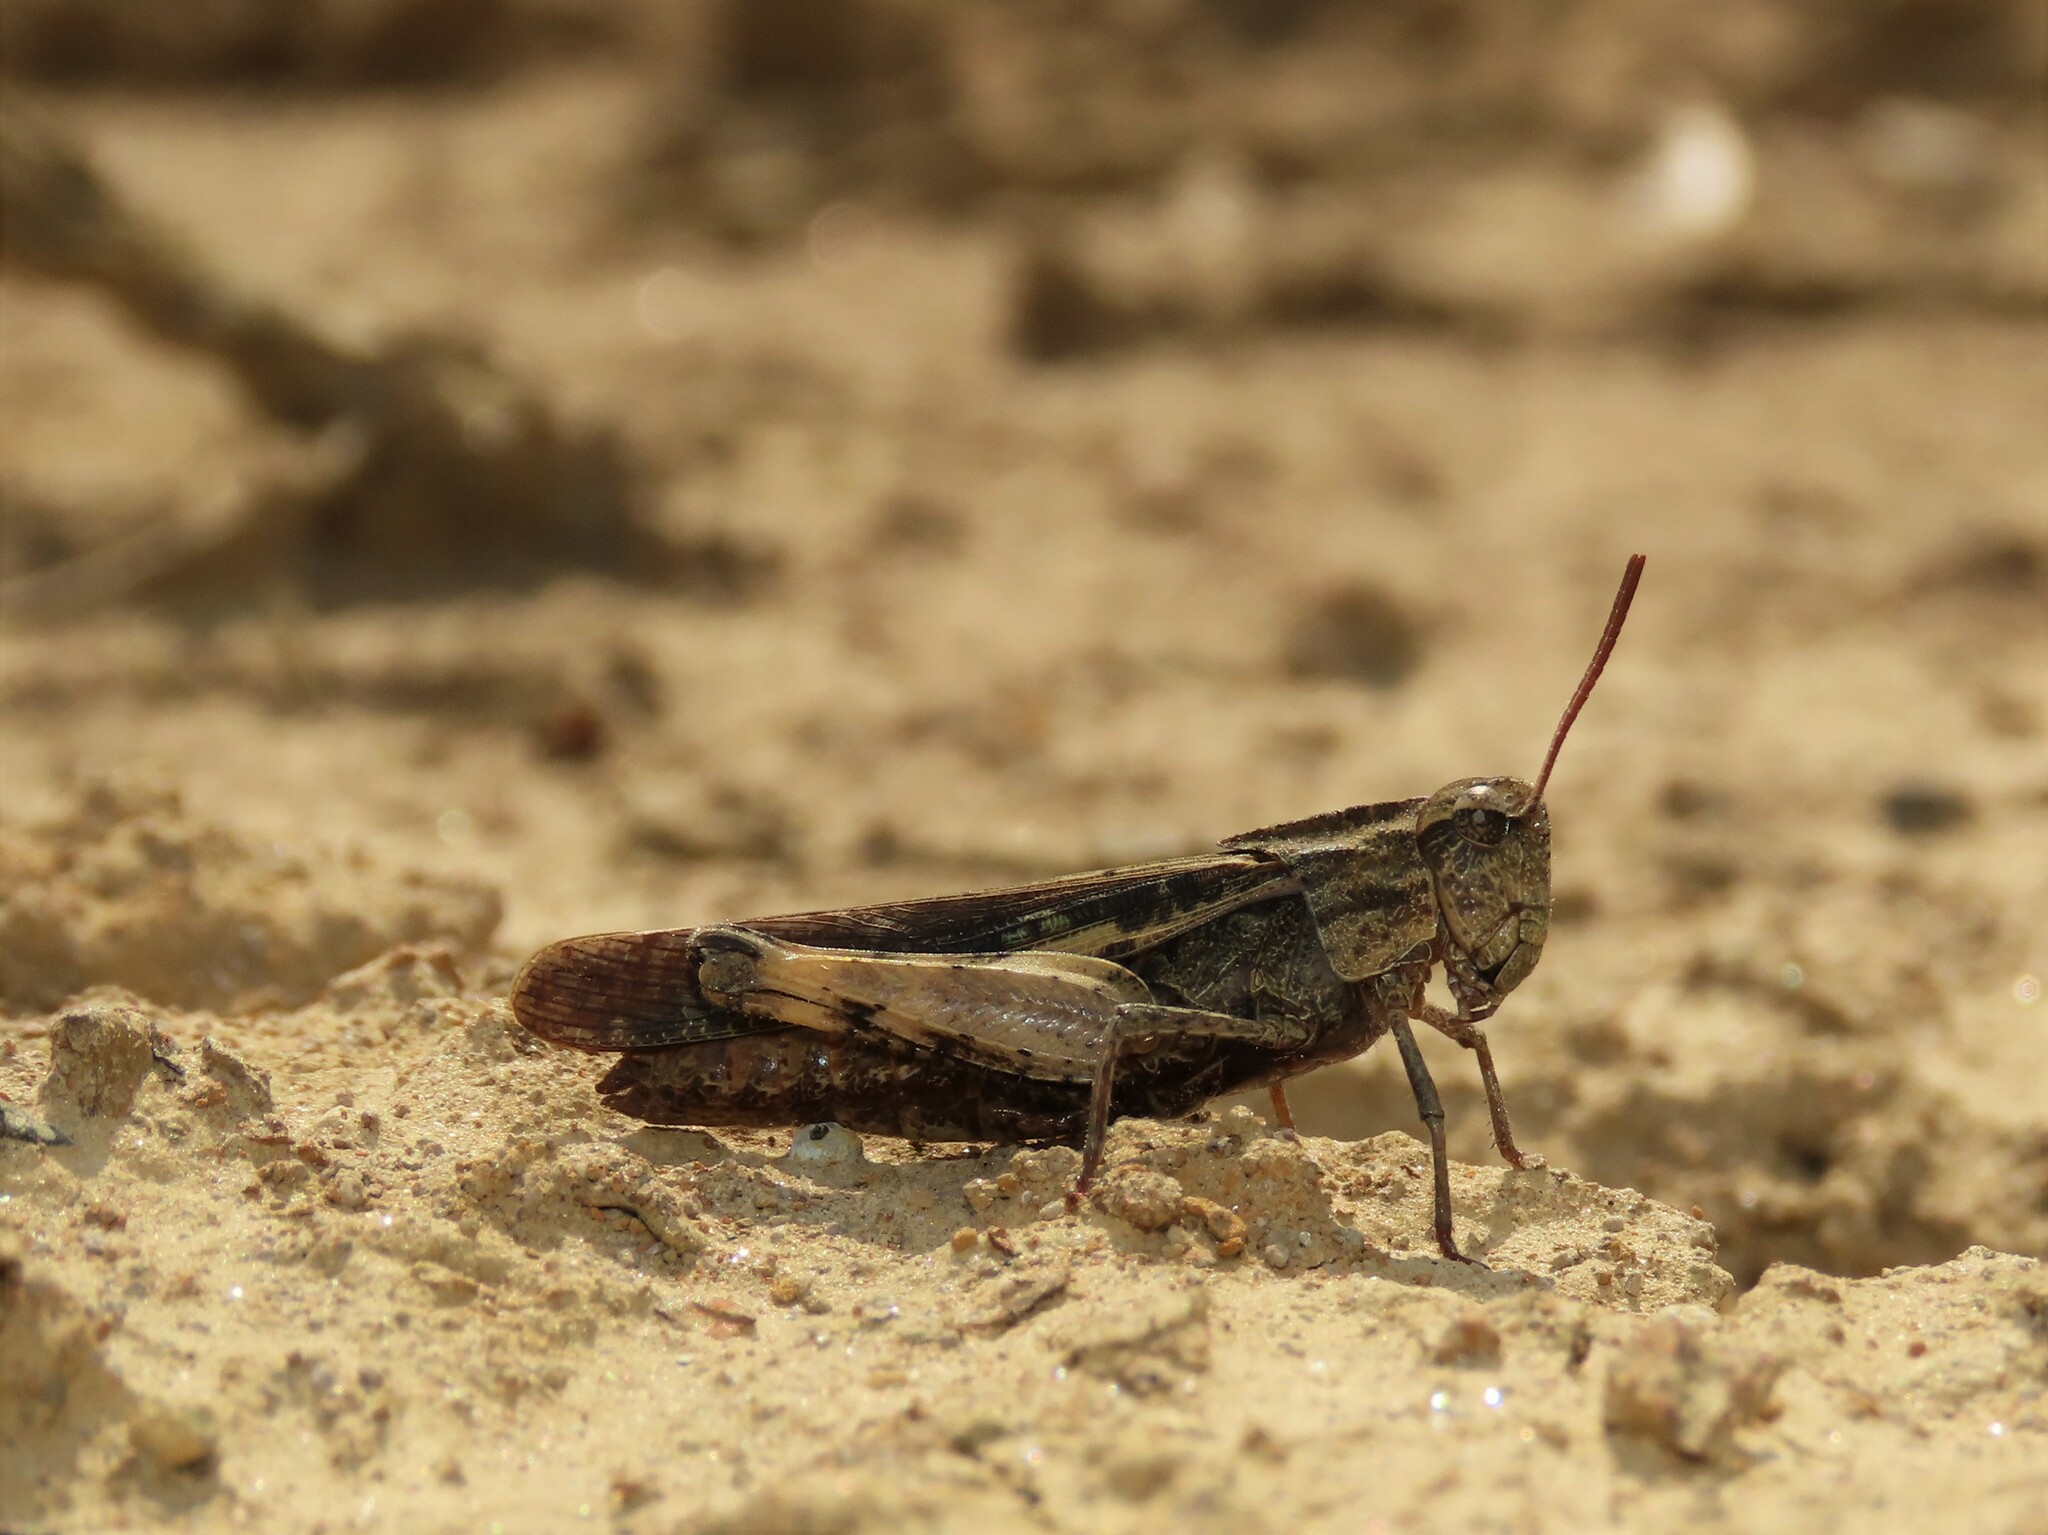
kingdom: Animalia
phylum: Arthropoda
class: Insecta
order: Orthoptera
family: Acrididae
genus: Chortophaga
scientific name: Chortophaga viridifasciata
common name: Green-striped grasshopper
